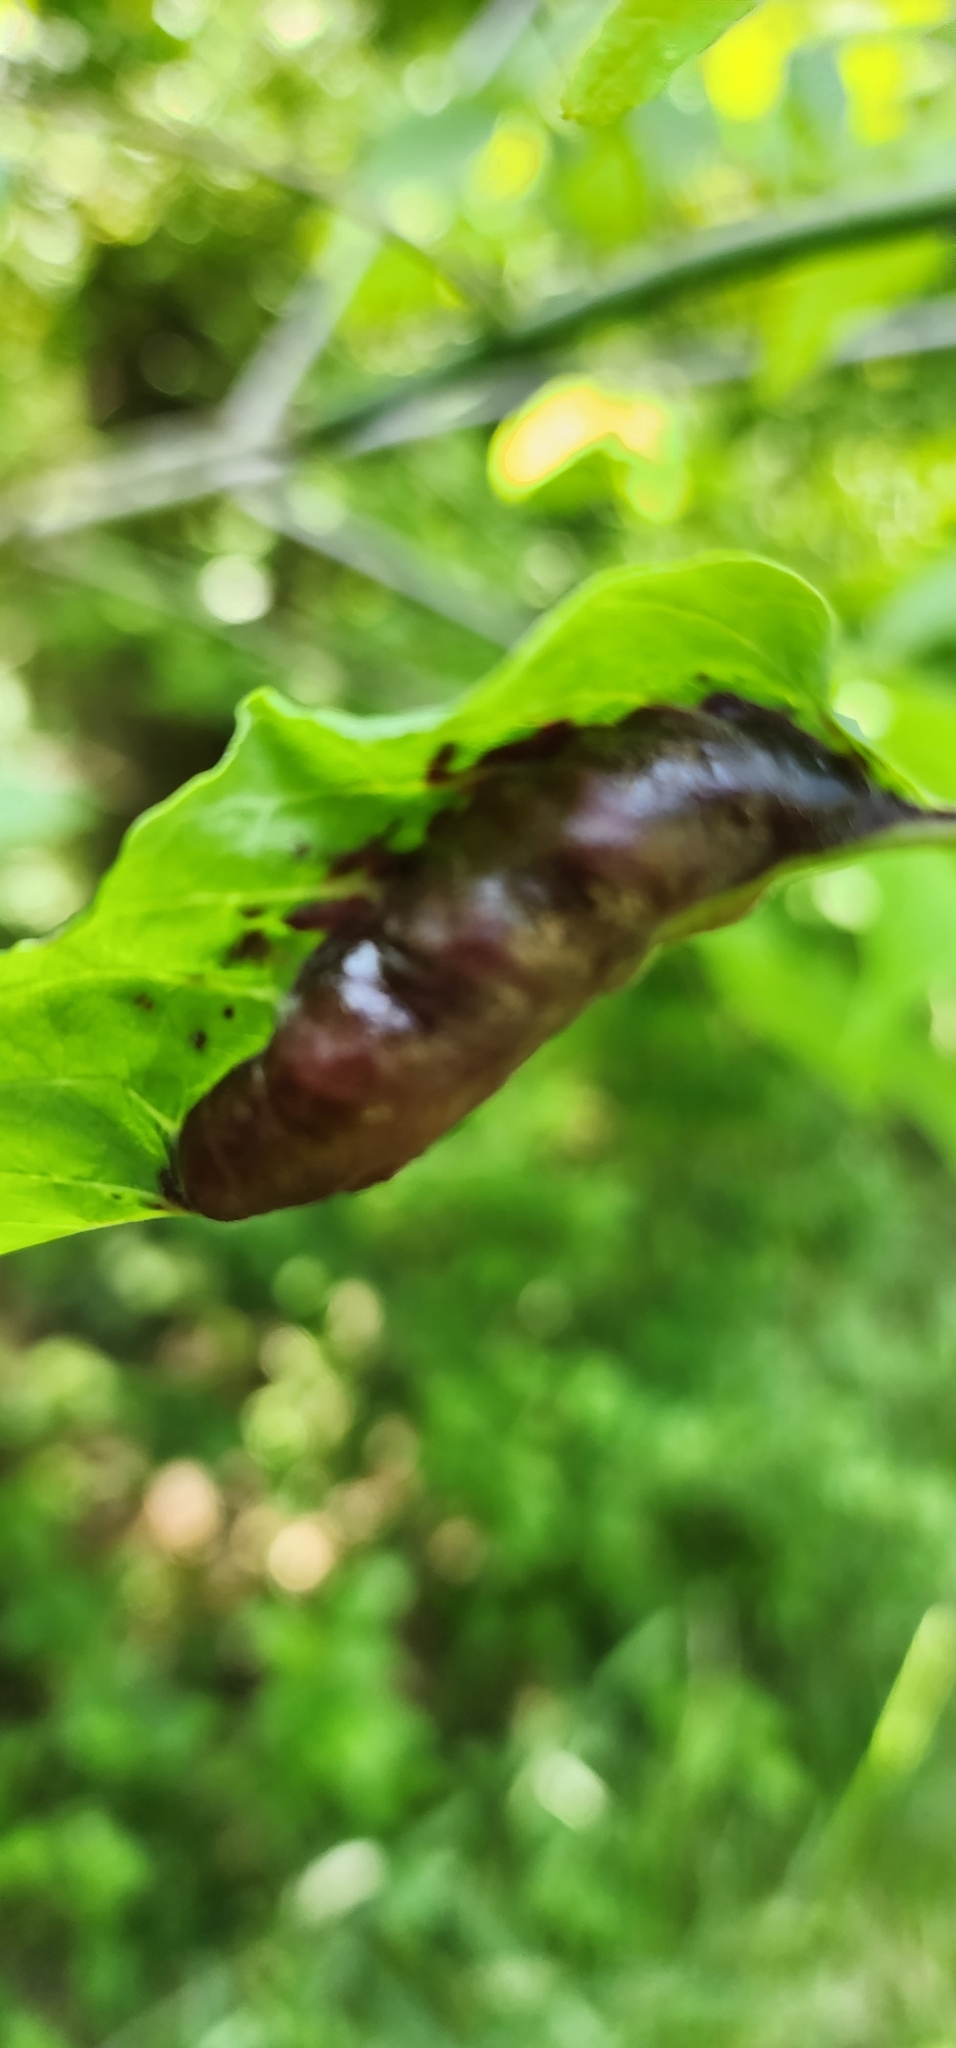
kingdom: Animalia
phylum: Arthropoda
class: Insecta
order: Diptera
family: Cecidomyiidae
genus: Dasineura
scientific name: Dasineura tumidosae
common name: Ash petiole gall midge
